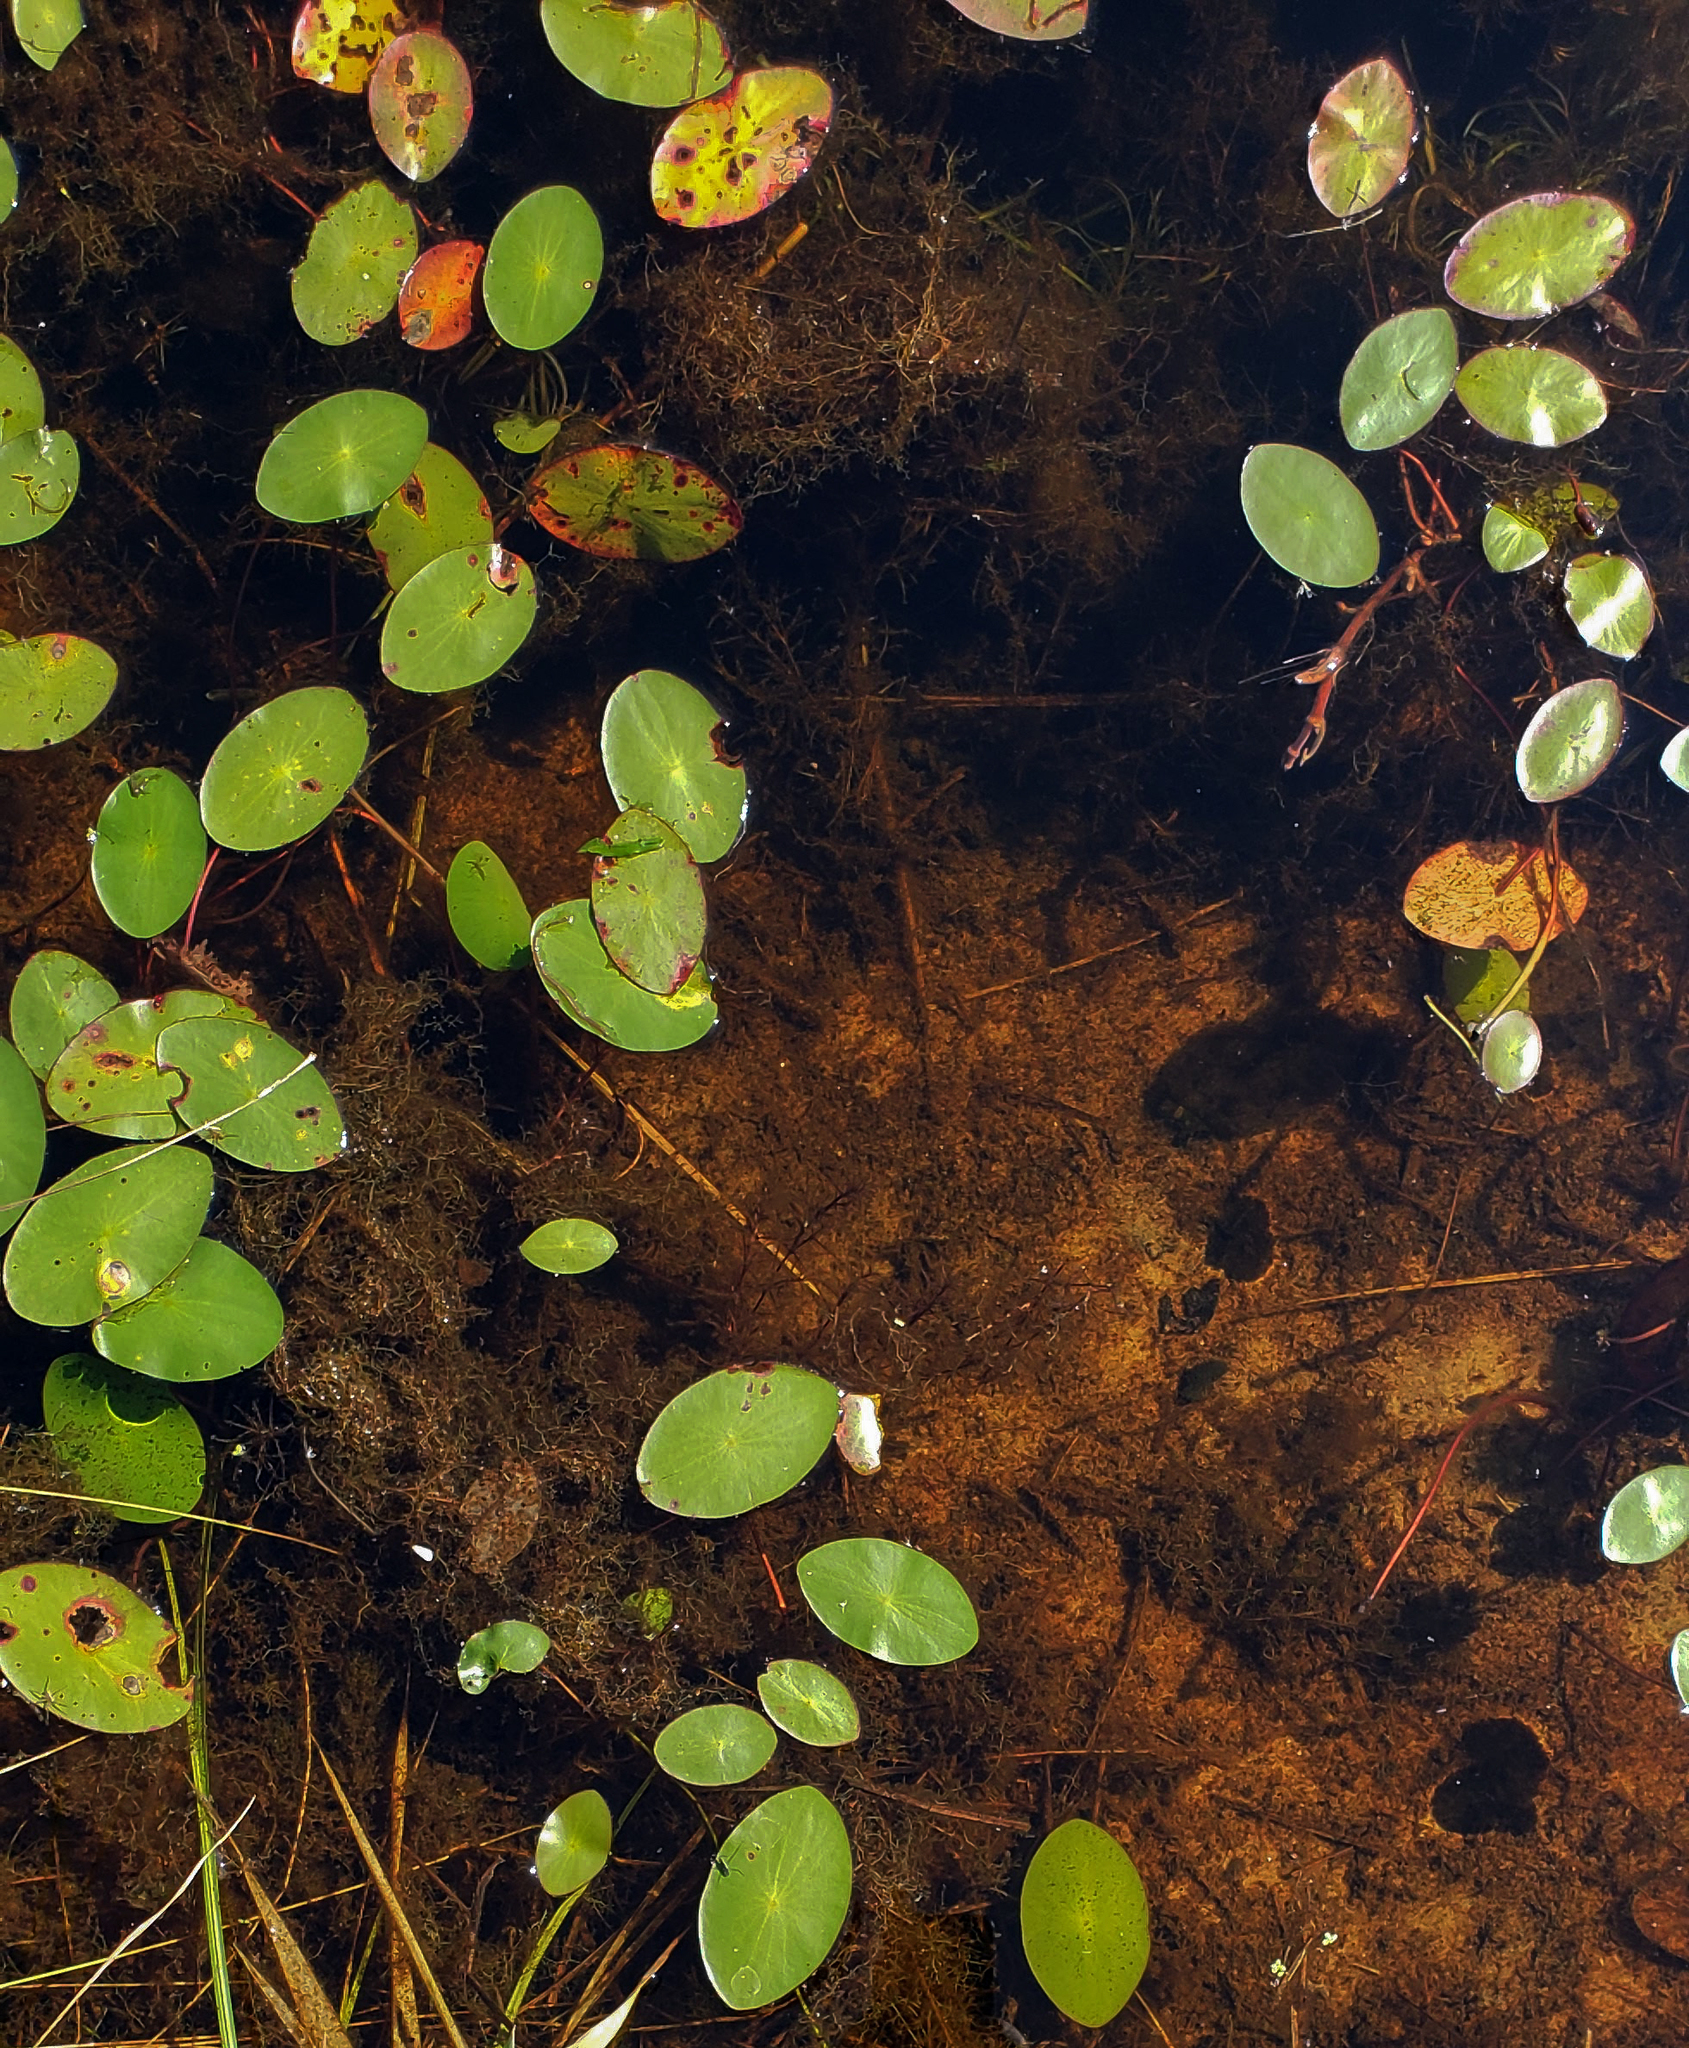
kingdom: Plantae
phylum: Tracheophyta
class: Magnoliopsida
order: Nymphaeales
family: Cabombaceae
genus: Brasenia
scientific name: Brasenia schreberi
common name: Water-shield
